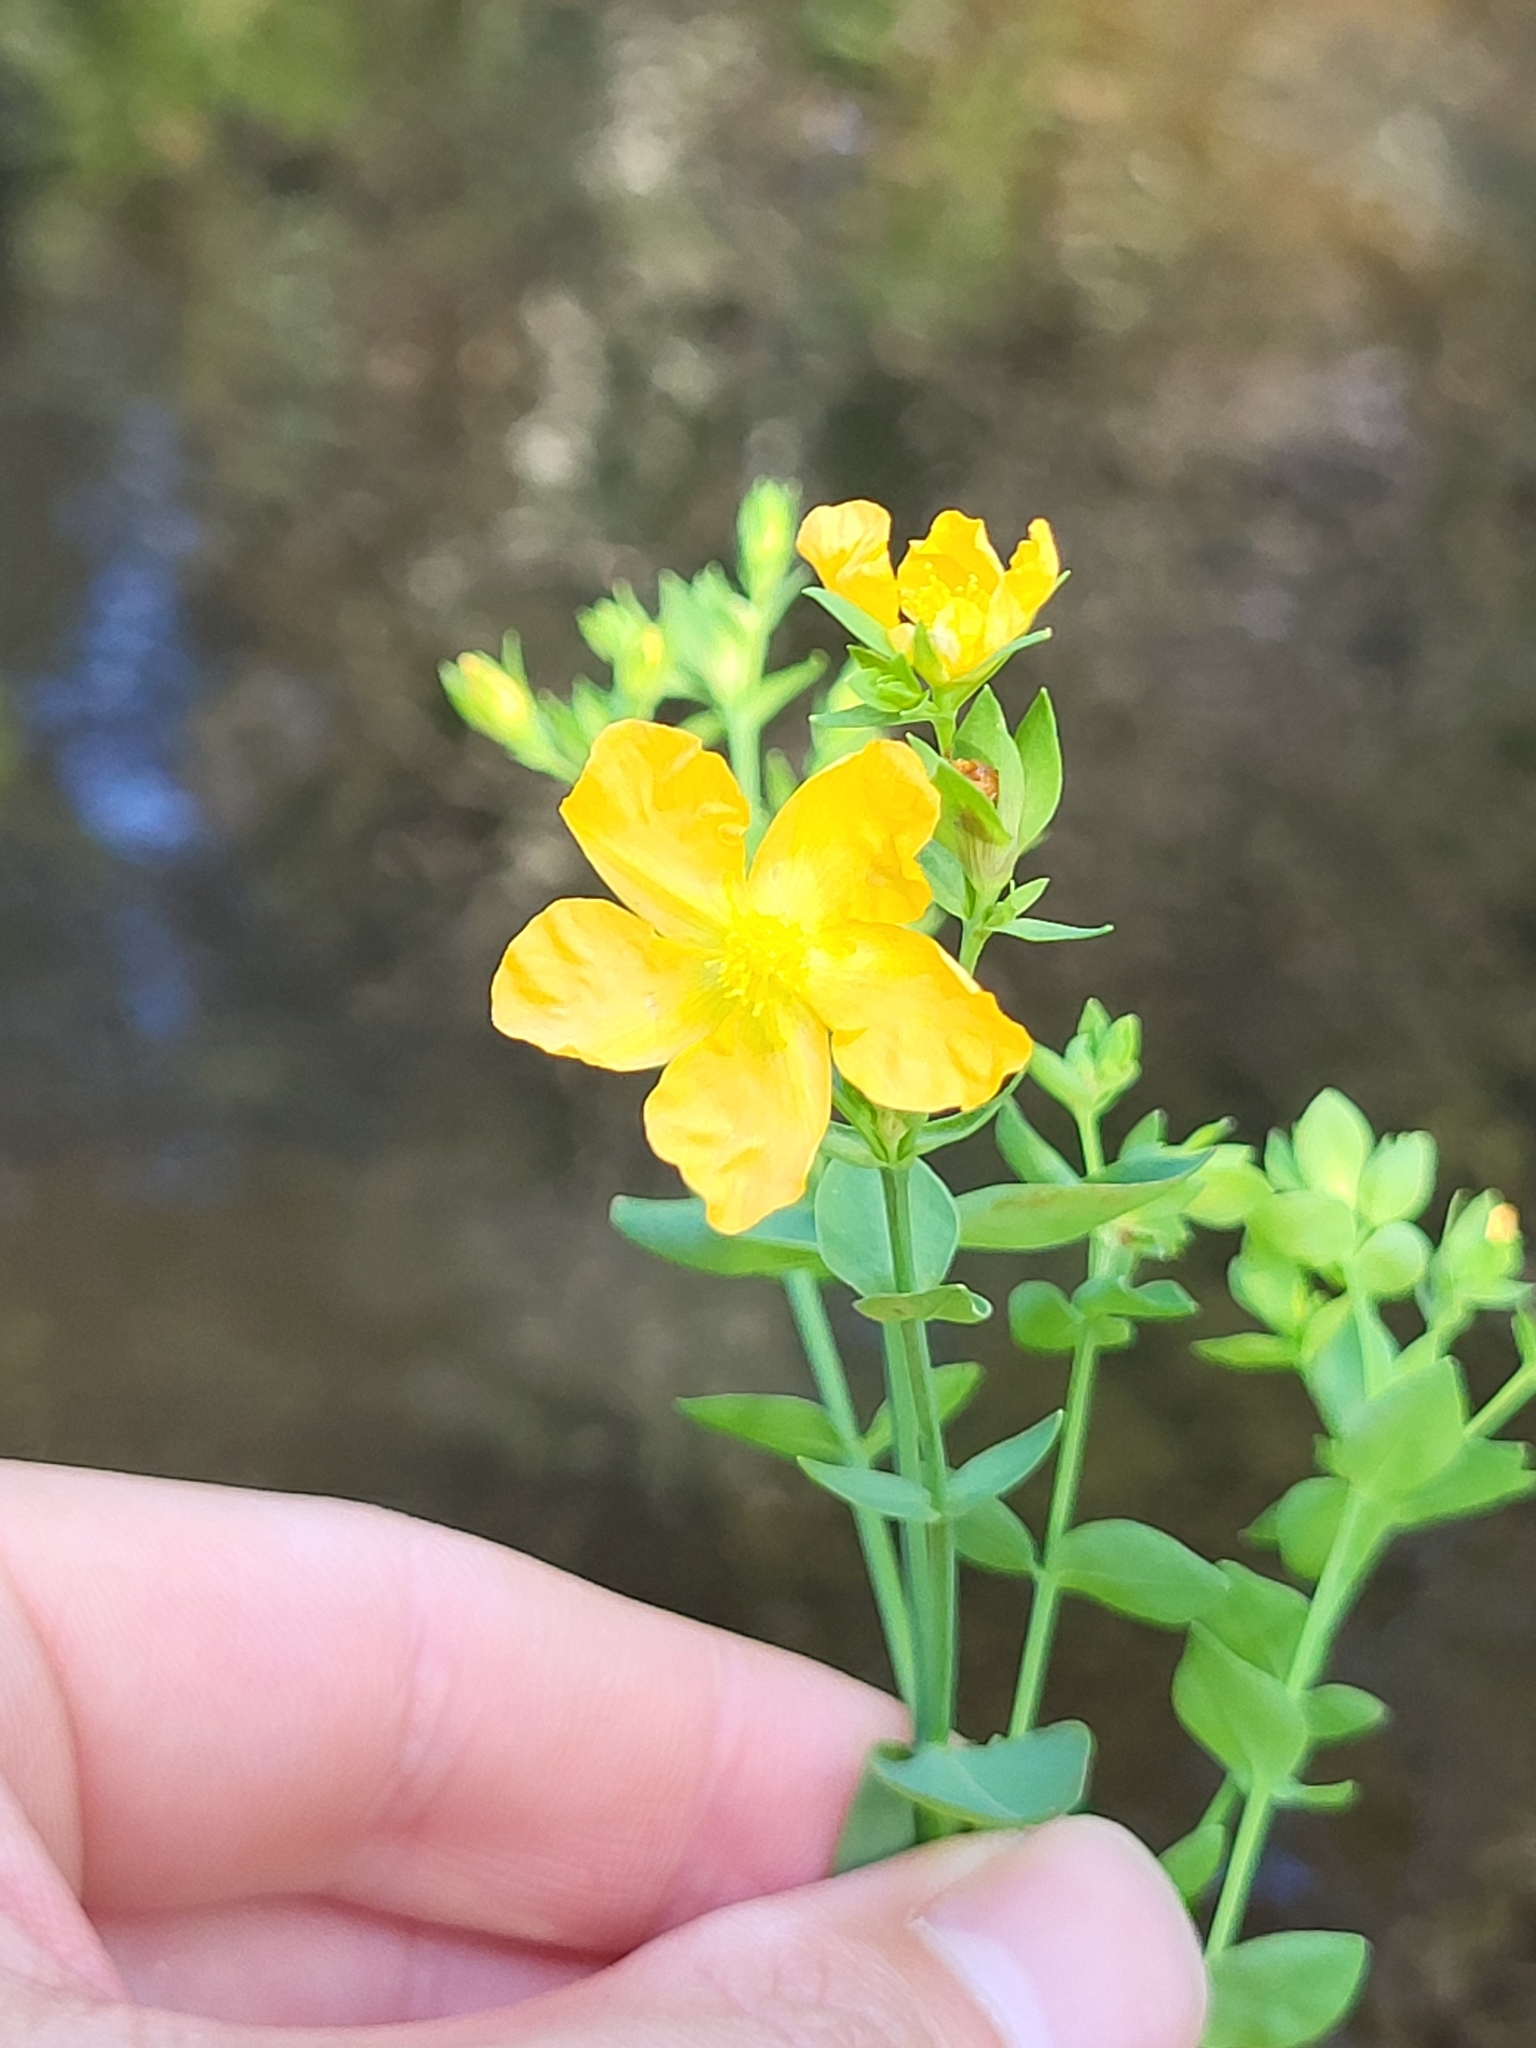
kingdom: Plantae
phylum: Tracheophyta
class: Magnoliopsida
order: Malpighiales
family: Hypericaceae
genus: Hypericum
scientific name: Hypericum denticulatum
